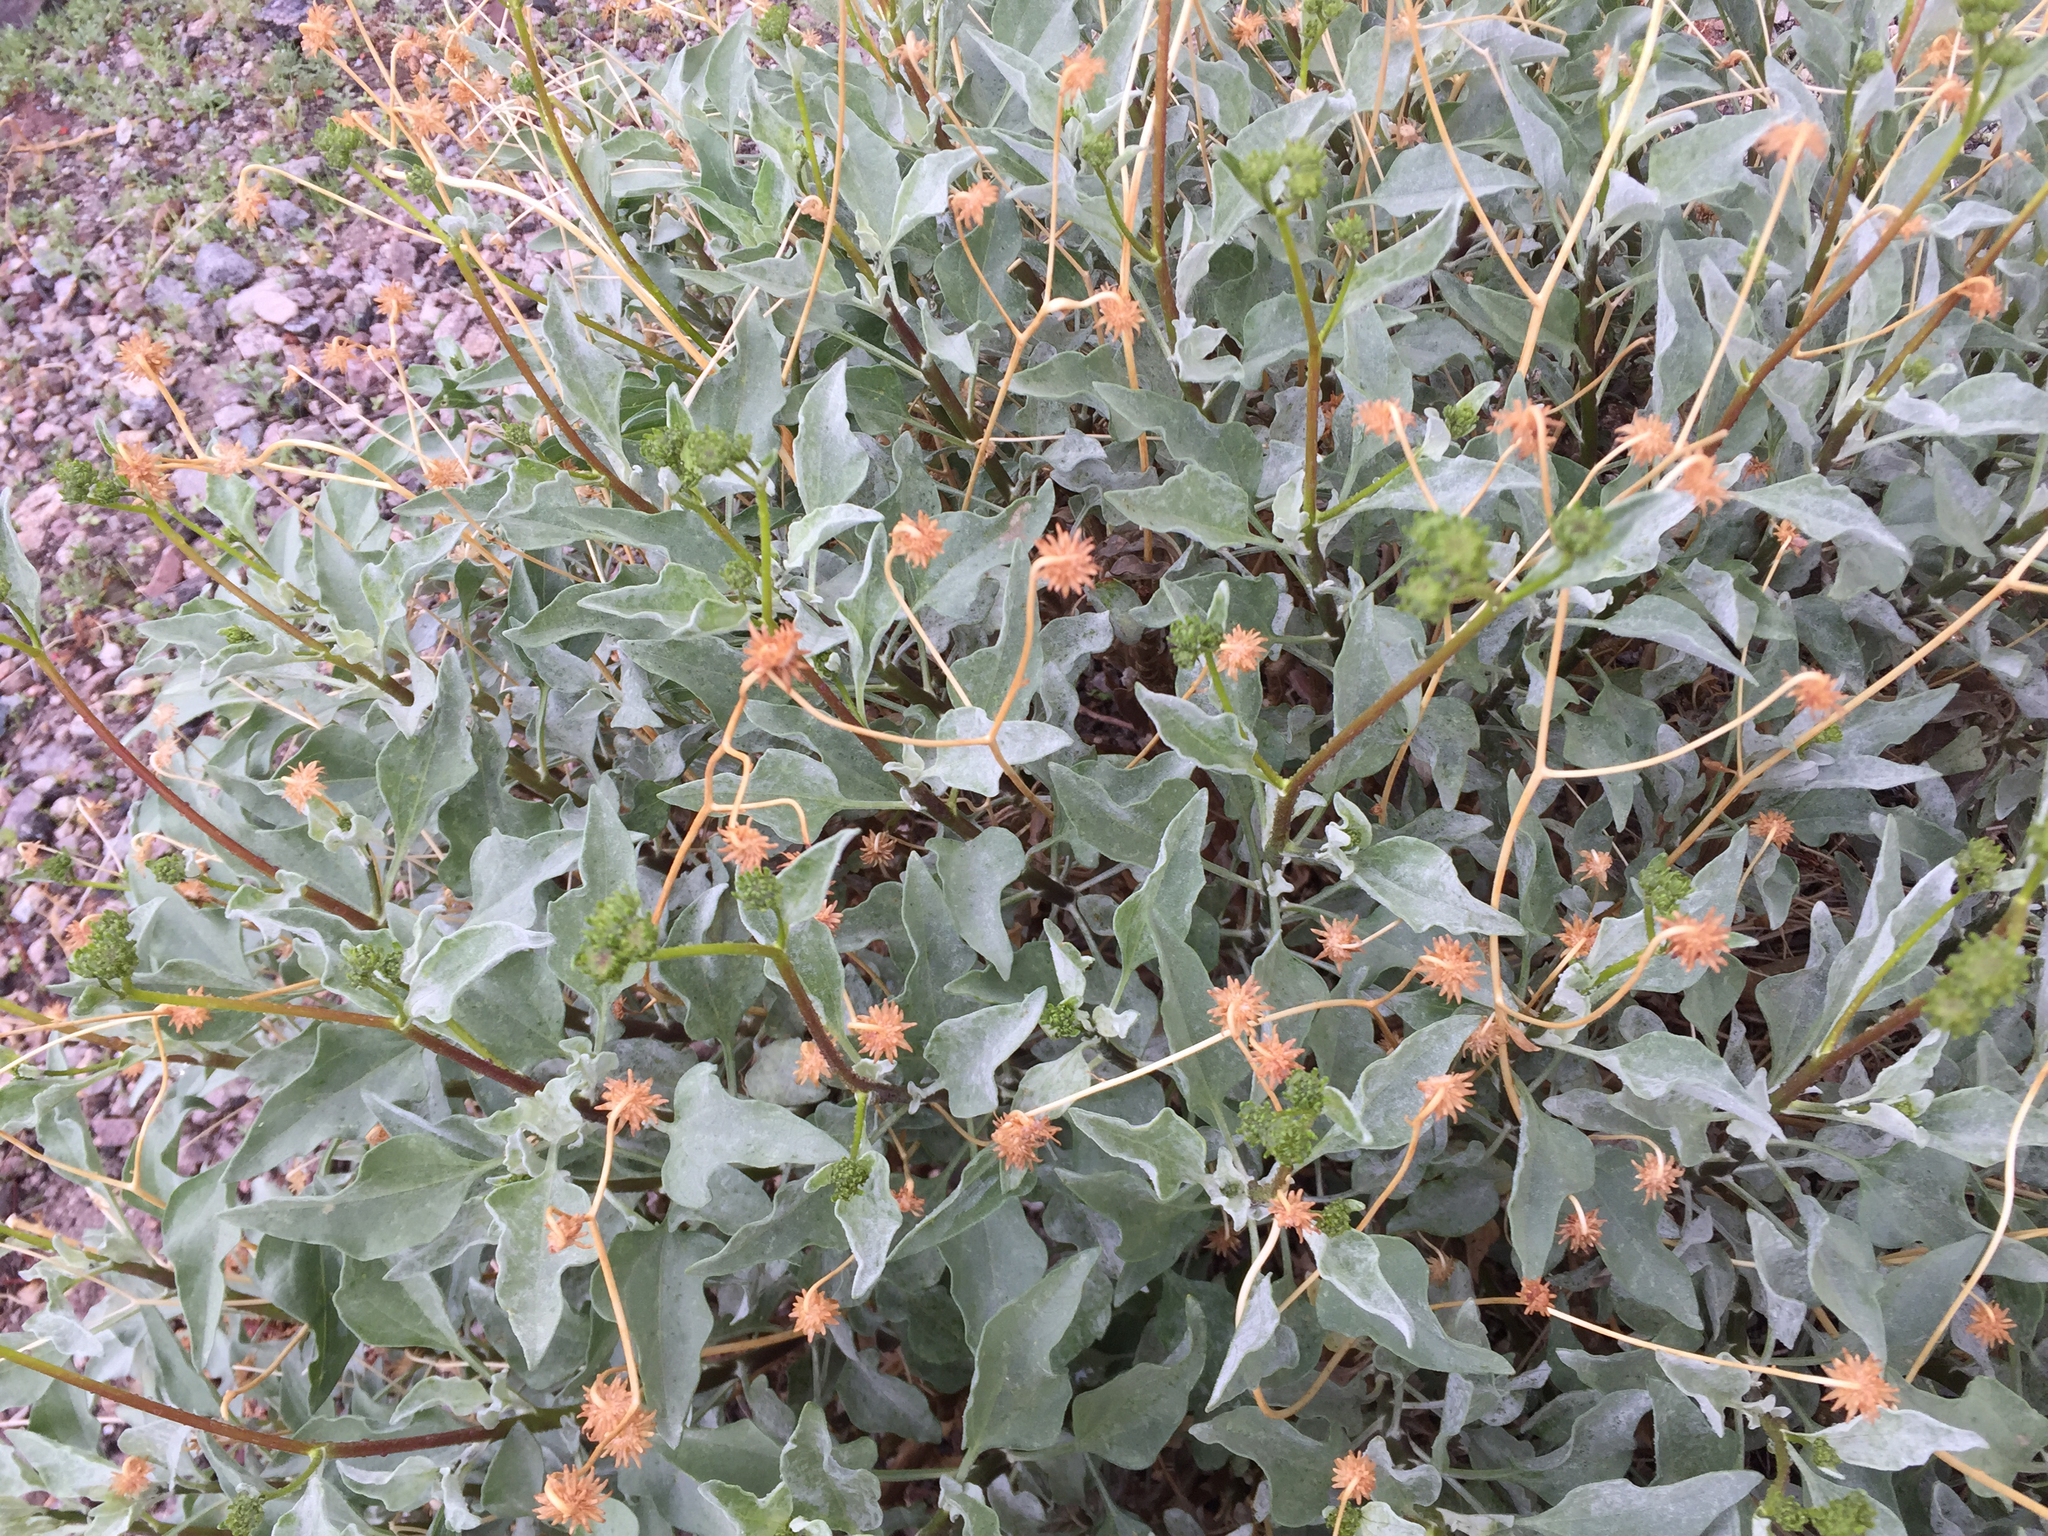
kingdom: Plantae
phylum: Tracheophyta
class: Magnoliopsida
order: Asterales
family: Asteraceae
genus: Encelia
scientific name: Encelia farinosa
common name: Brittlebush
